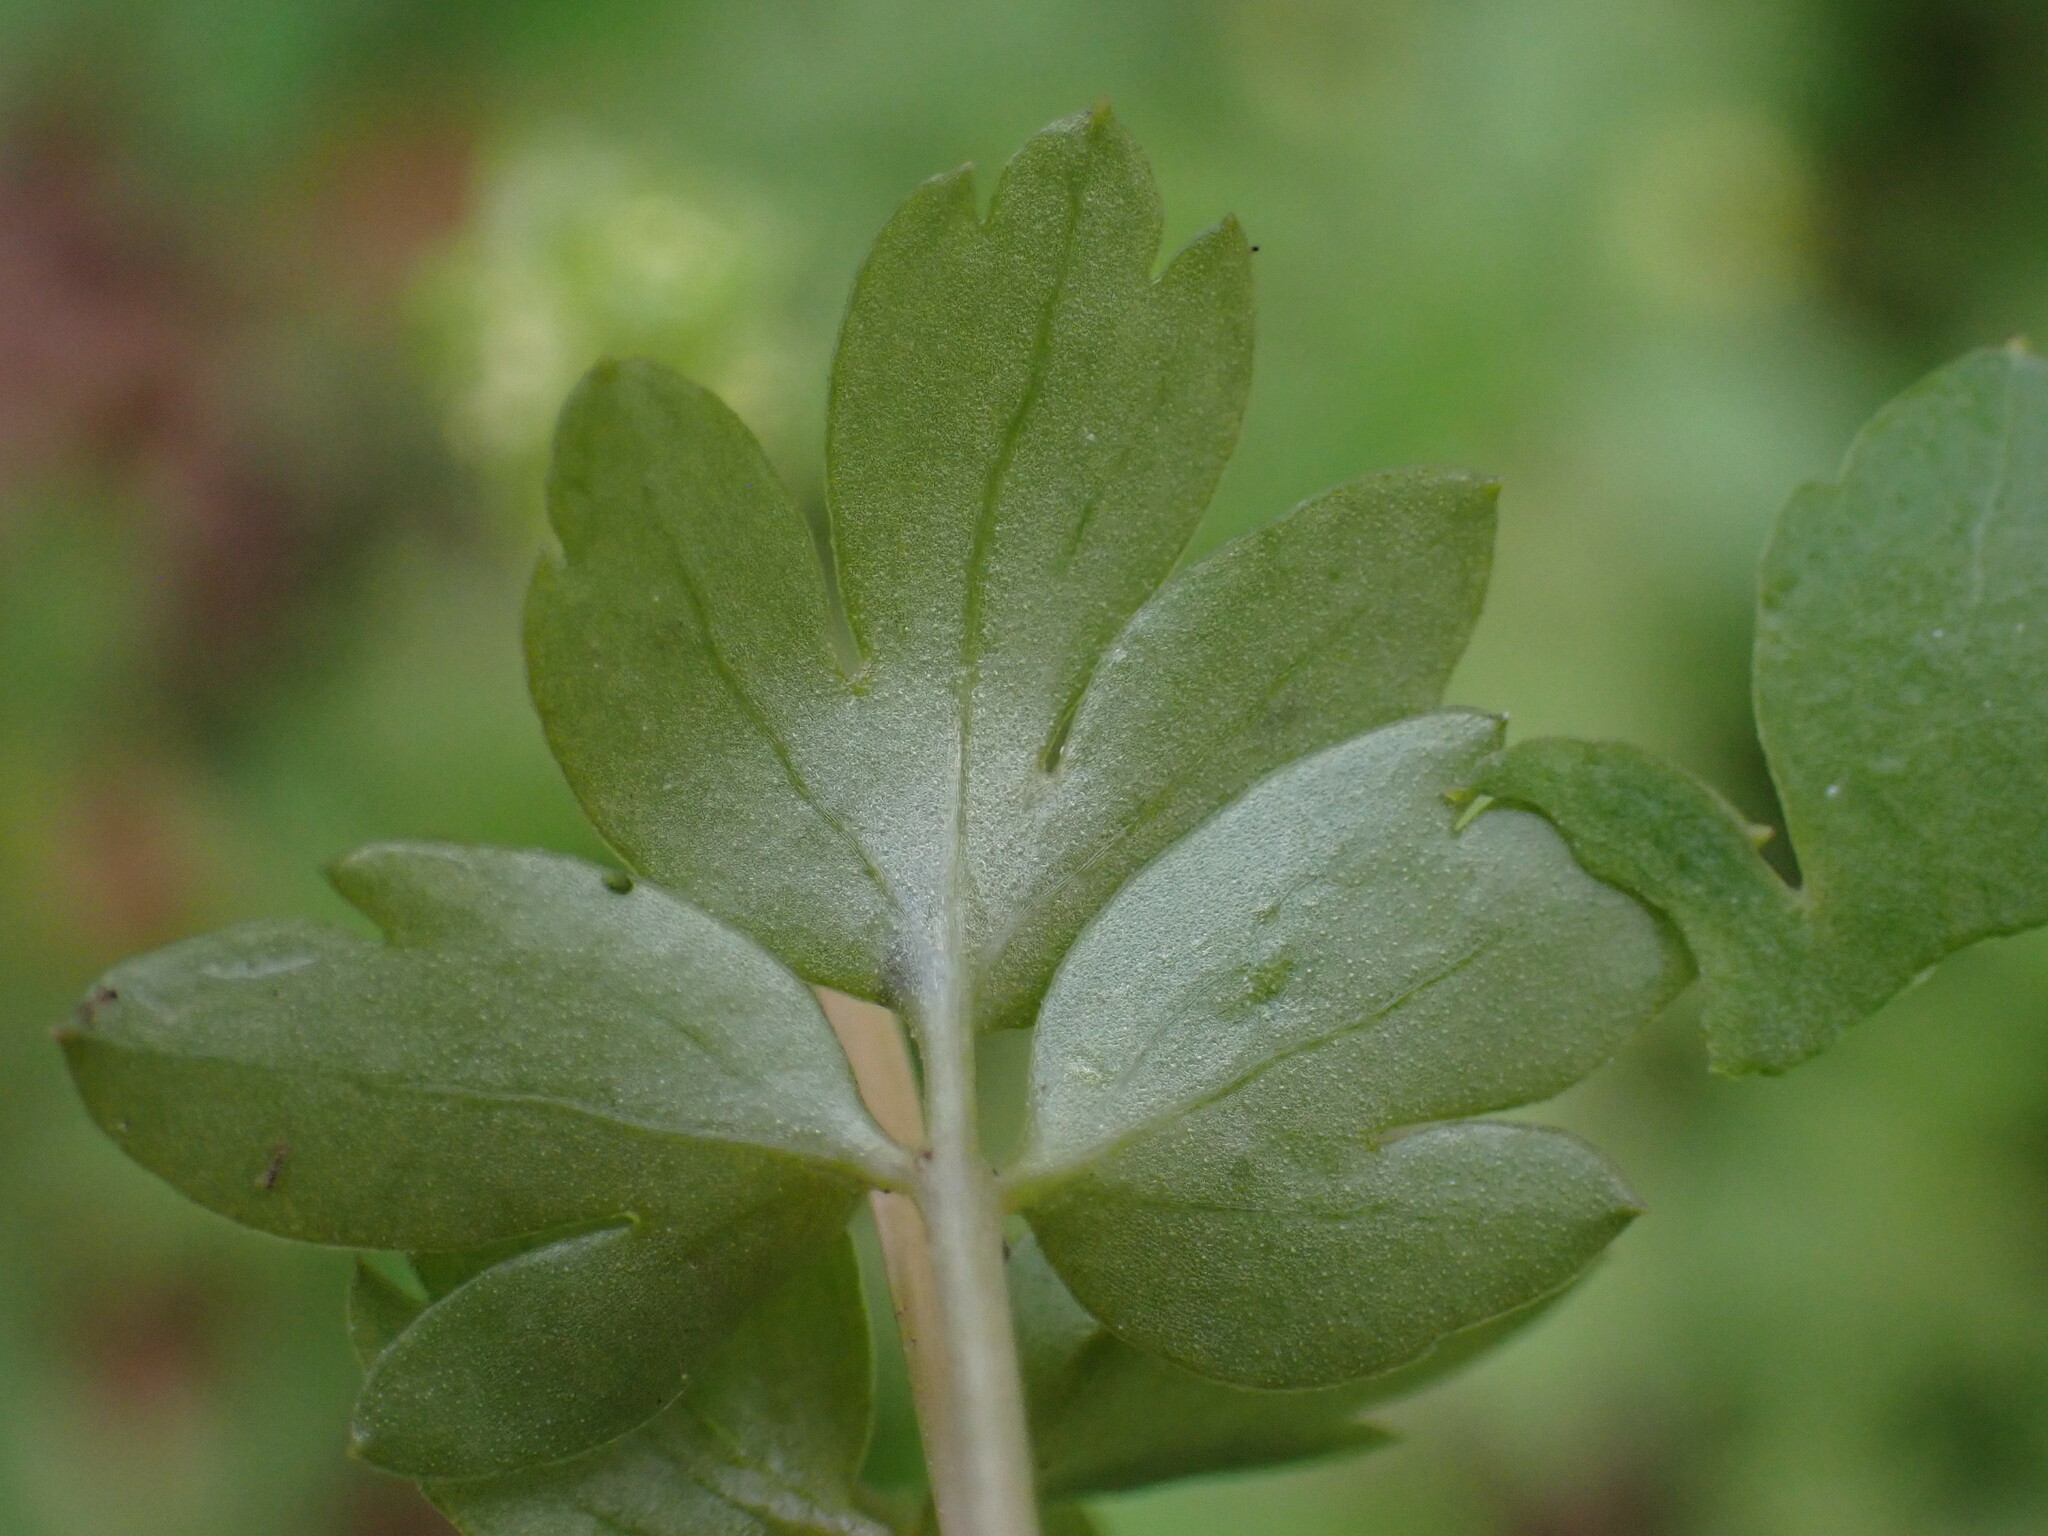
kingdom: Plantae
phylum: Tracheophyta
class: Magnoliopsida
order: Dipsacales
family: Viburnaceae
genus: Adoxa
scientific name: Adoxa moschatellina
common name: Moschatel
